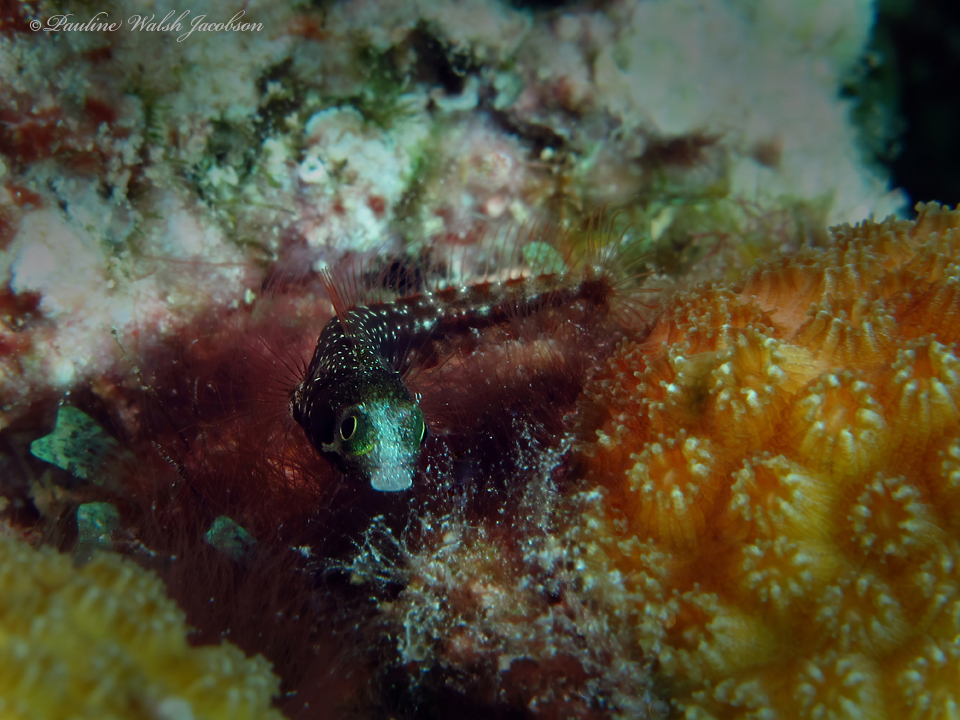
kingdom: Animalia
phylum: Chordata
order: Perciformes
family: Chaenopsidae
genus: Acanthemblemaria
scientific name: Acanthemblemaria spinosa
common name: Spinyhead blenny
